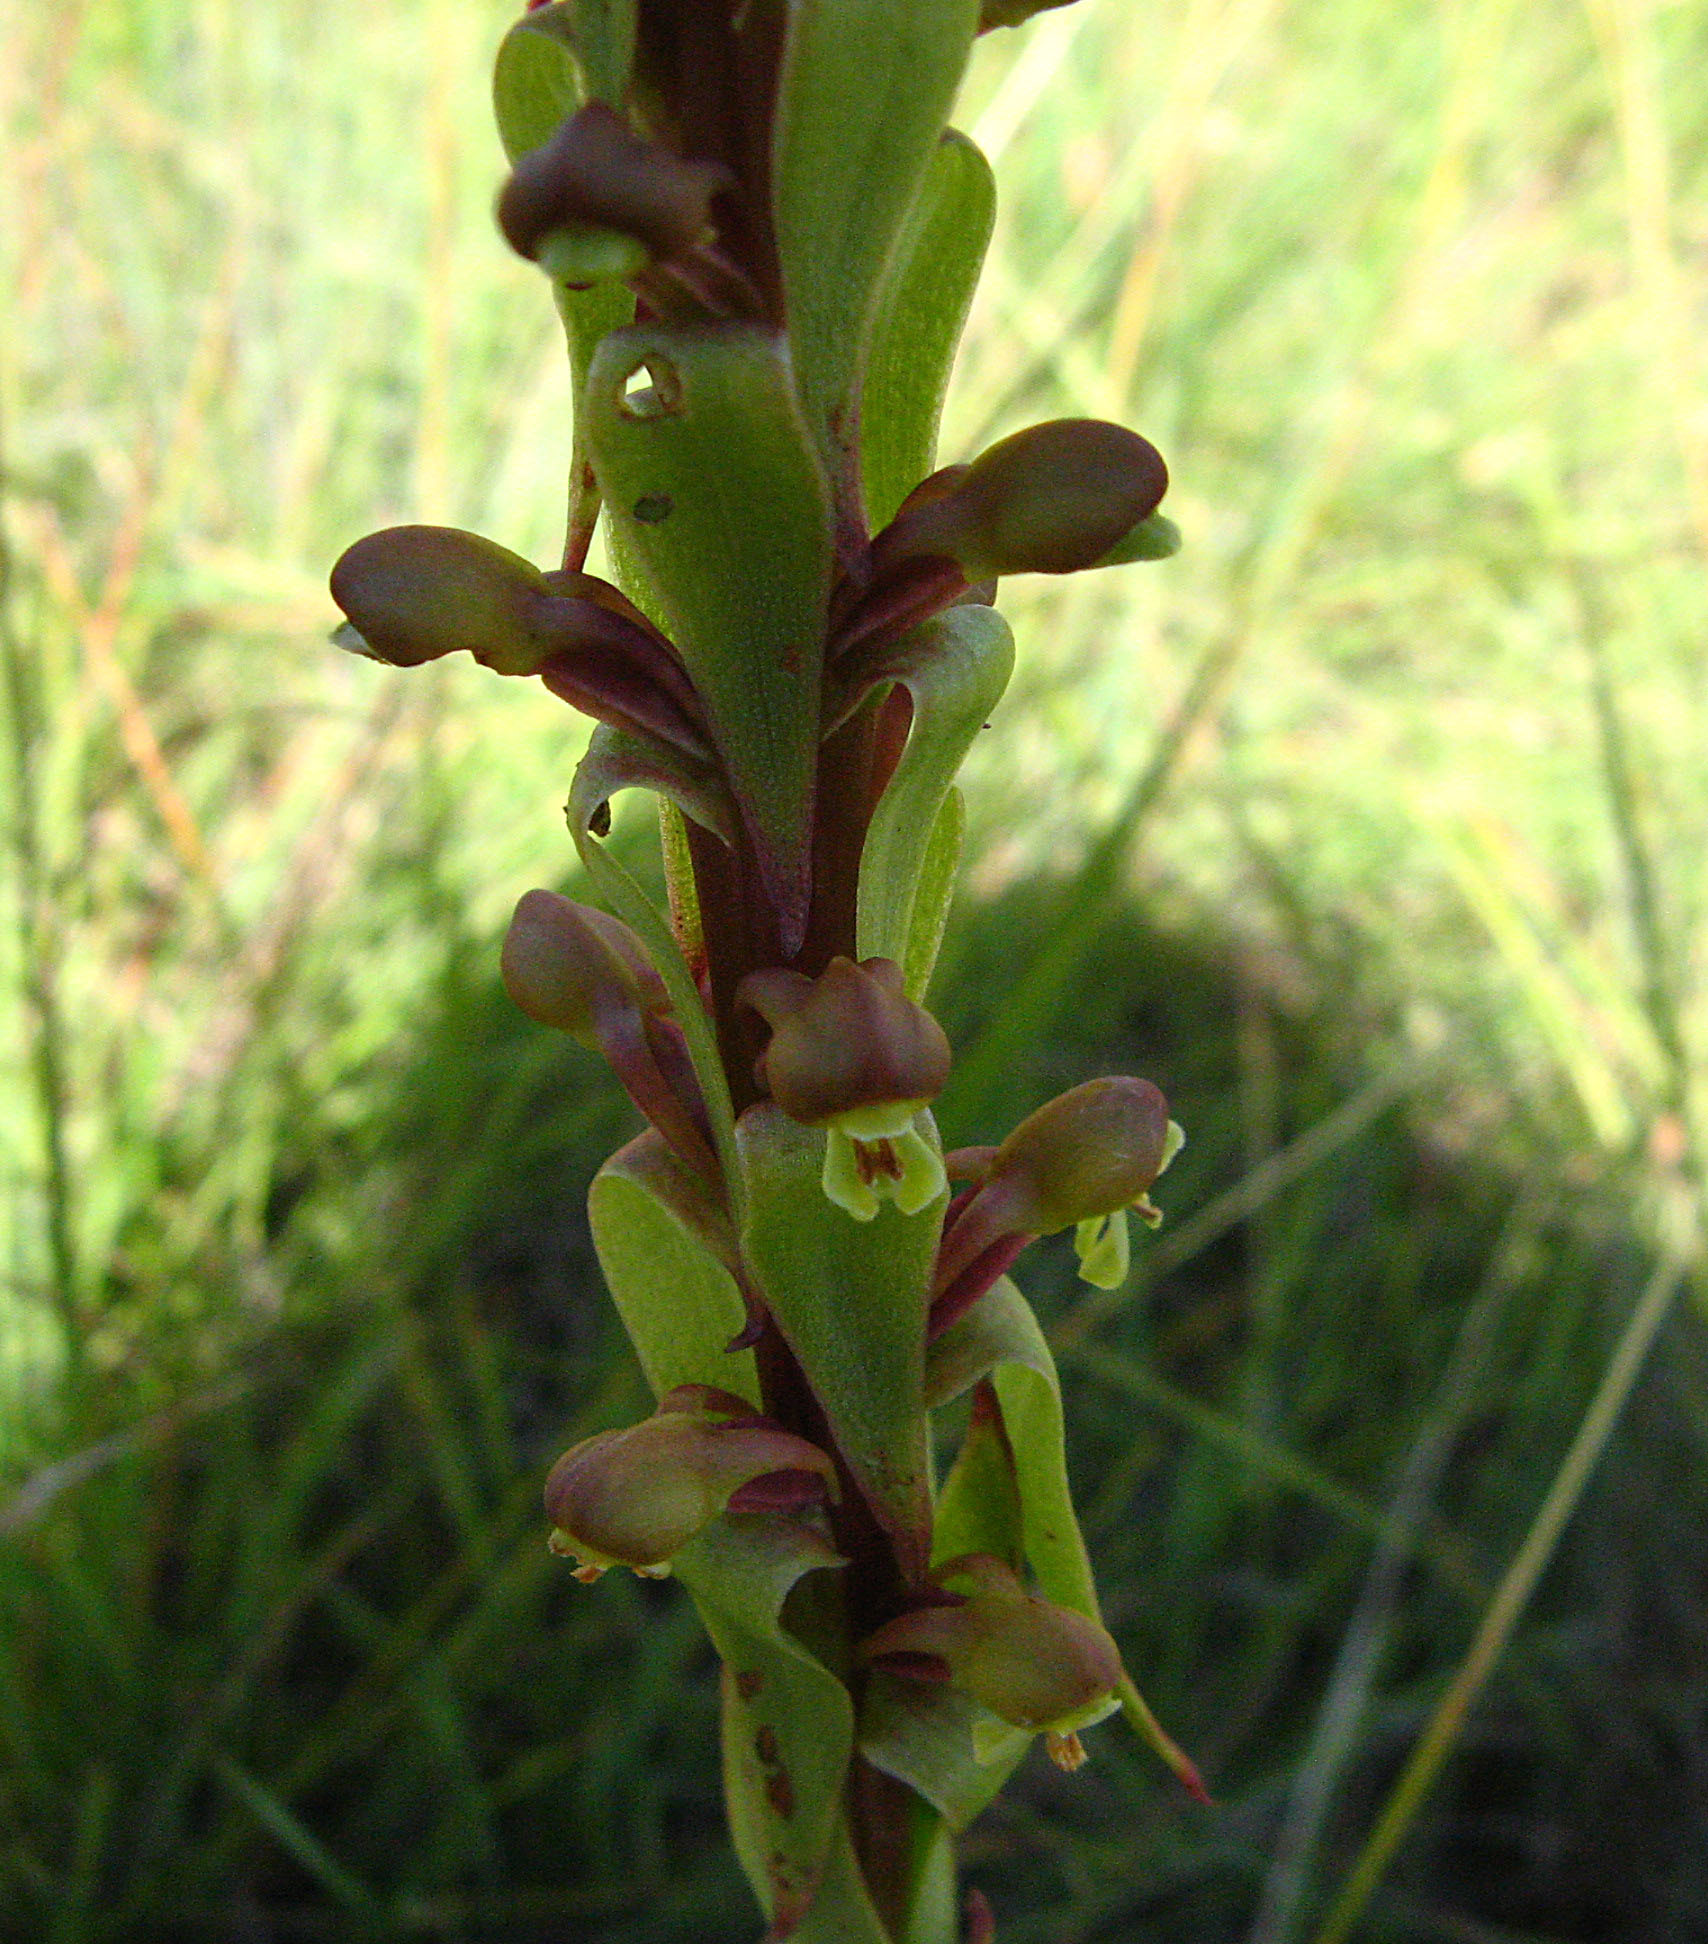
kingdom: Plantae
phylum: Tracheophyta
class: Liliopsida
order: Asparagales
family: Orchidaceae
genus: Satyrium
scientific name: Satyrium parviflorum
